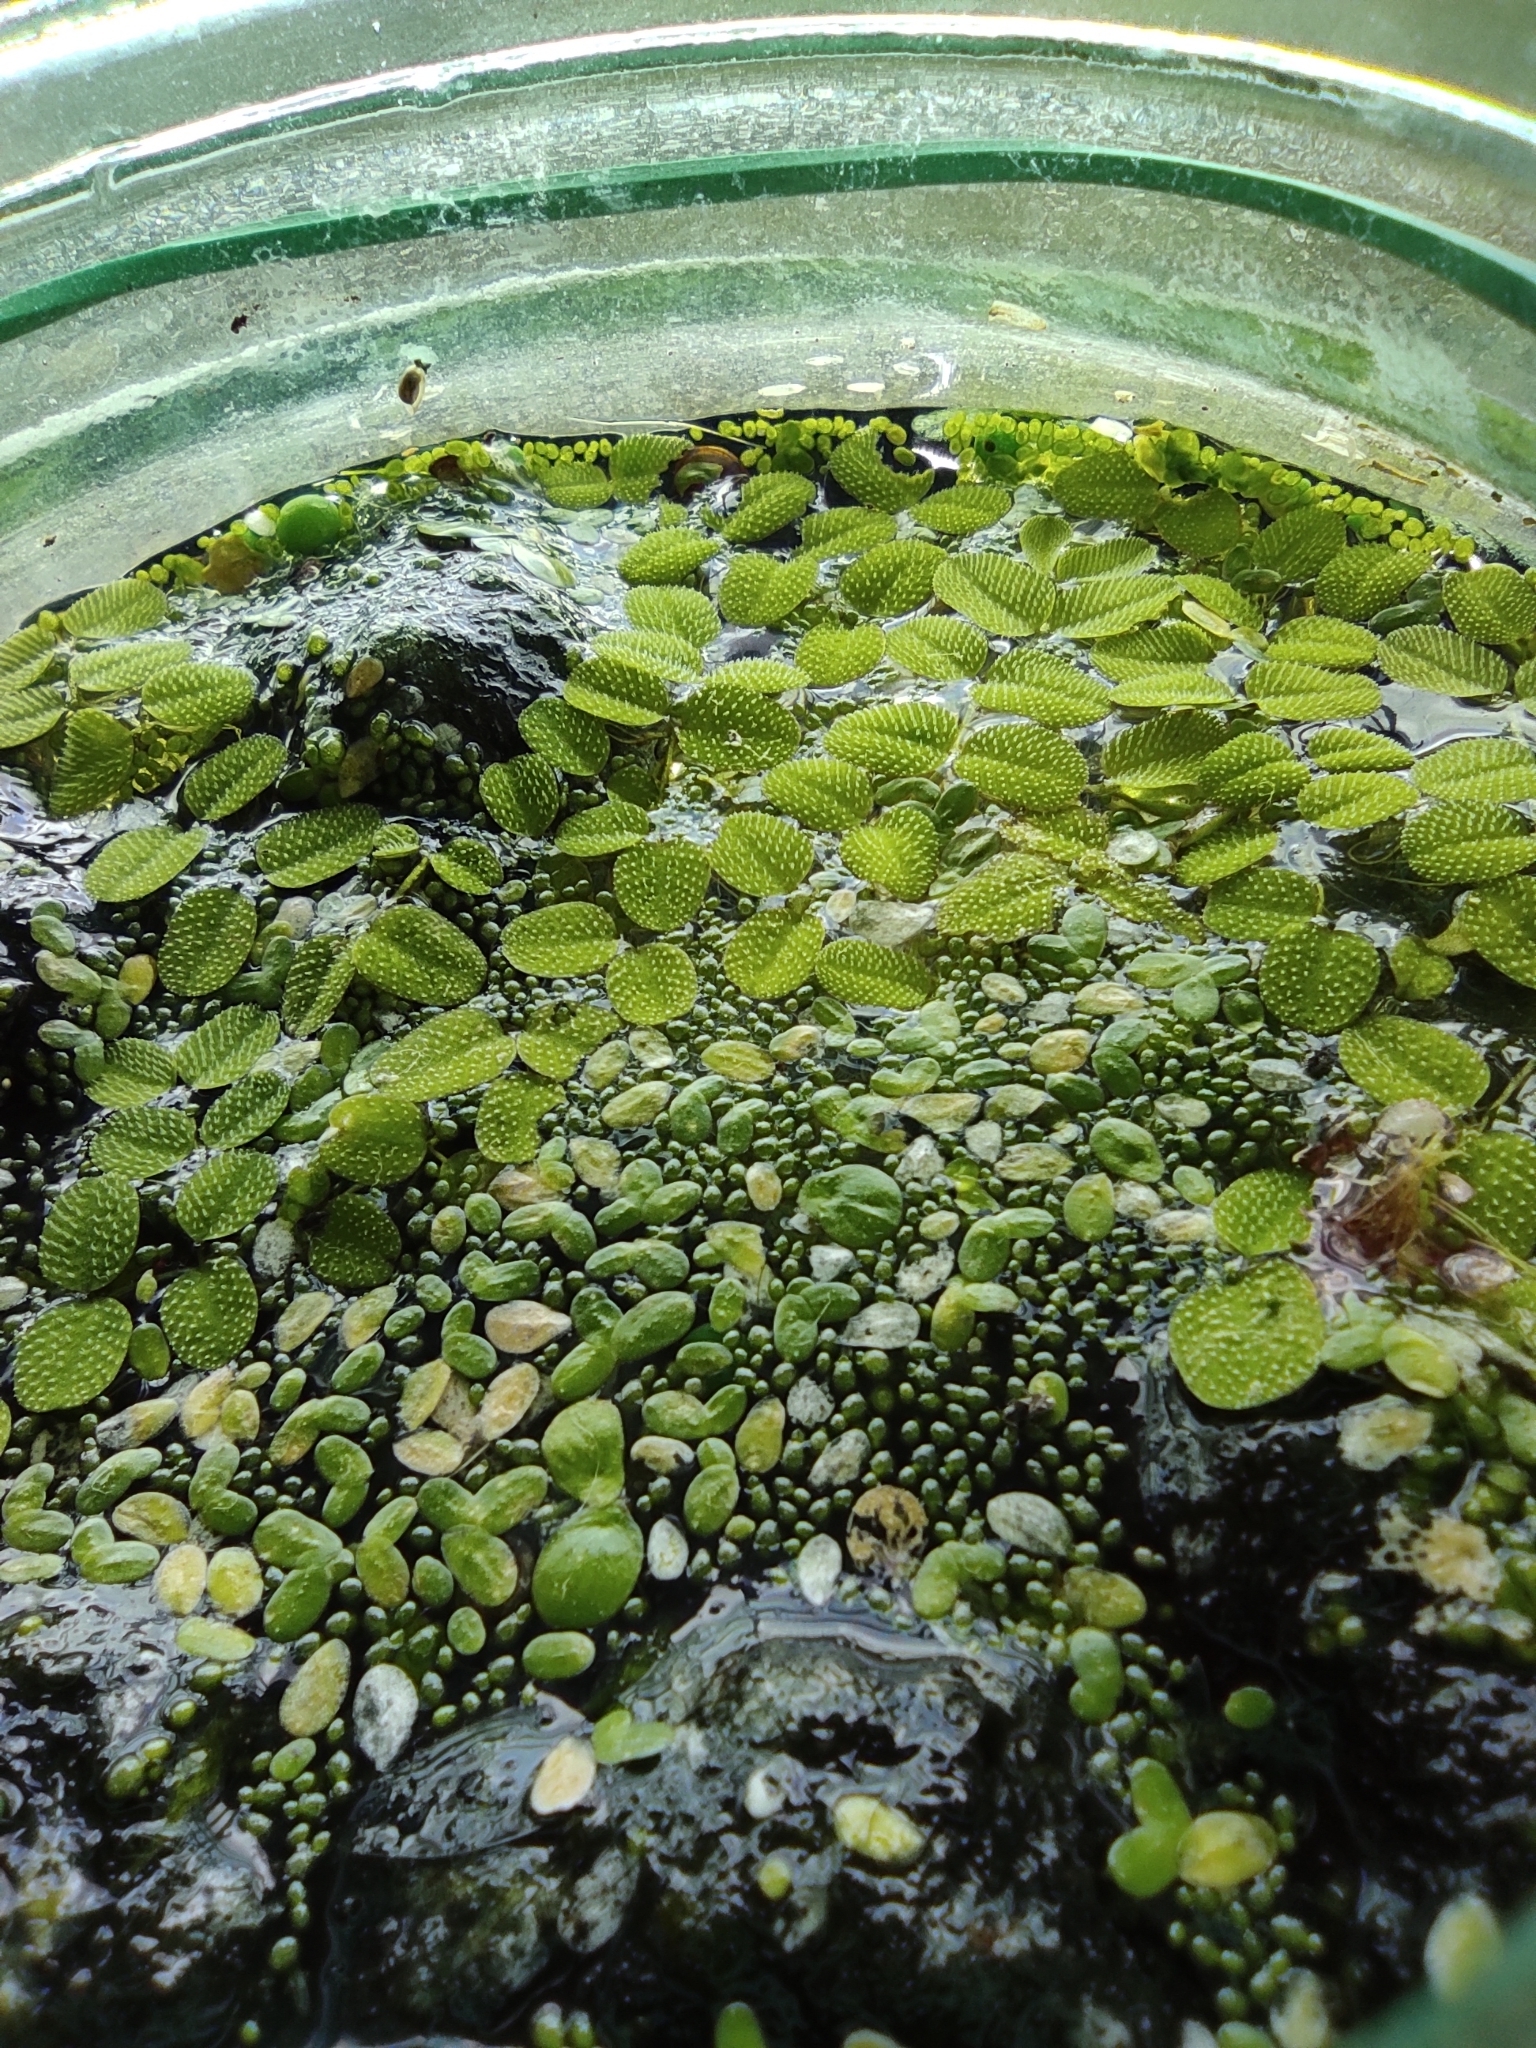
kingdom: Plantae
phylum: Tracheophyta
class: Polypodiopsida
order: Salviniales
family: Salviniaceae
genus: Salvinia
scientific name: Salvinia natans
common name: Floating fern
